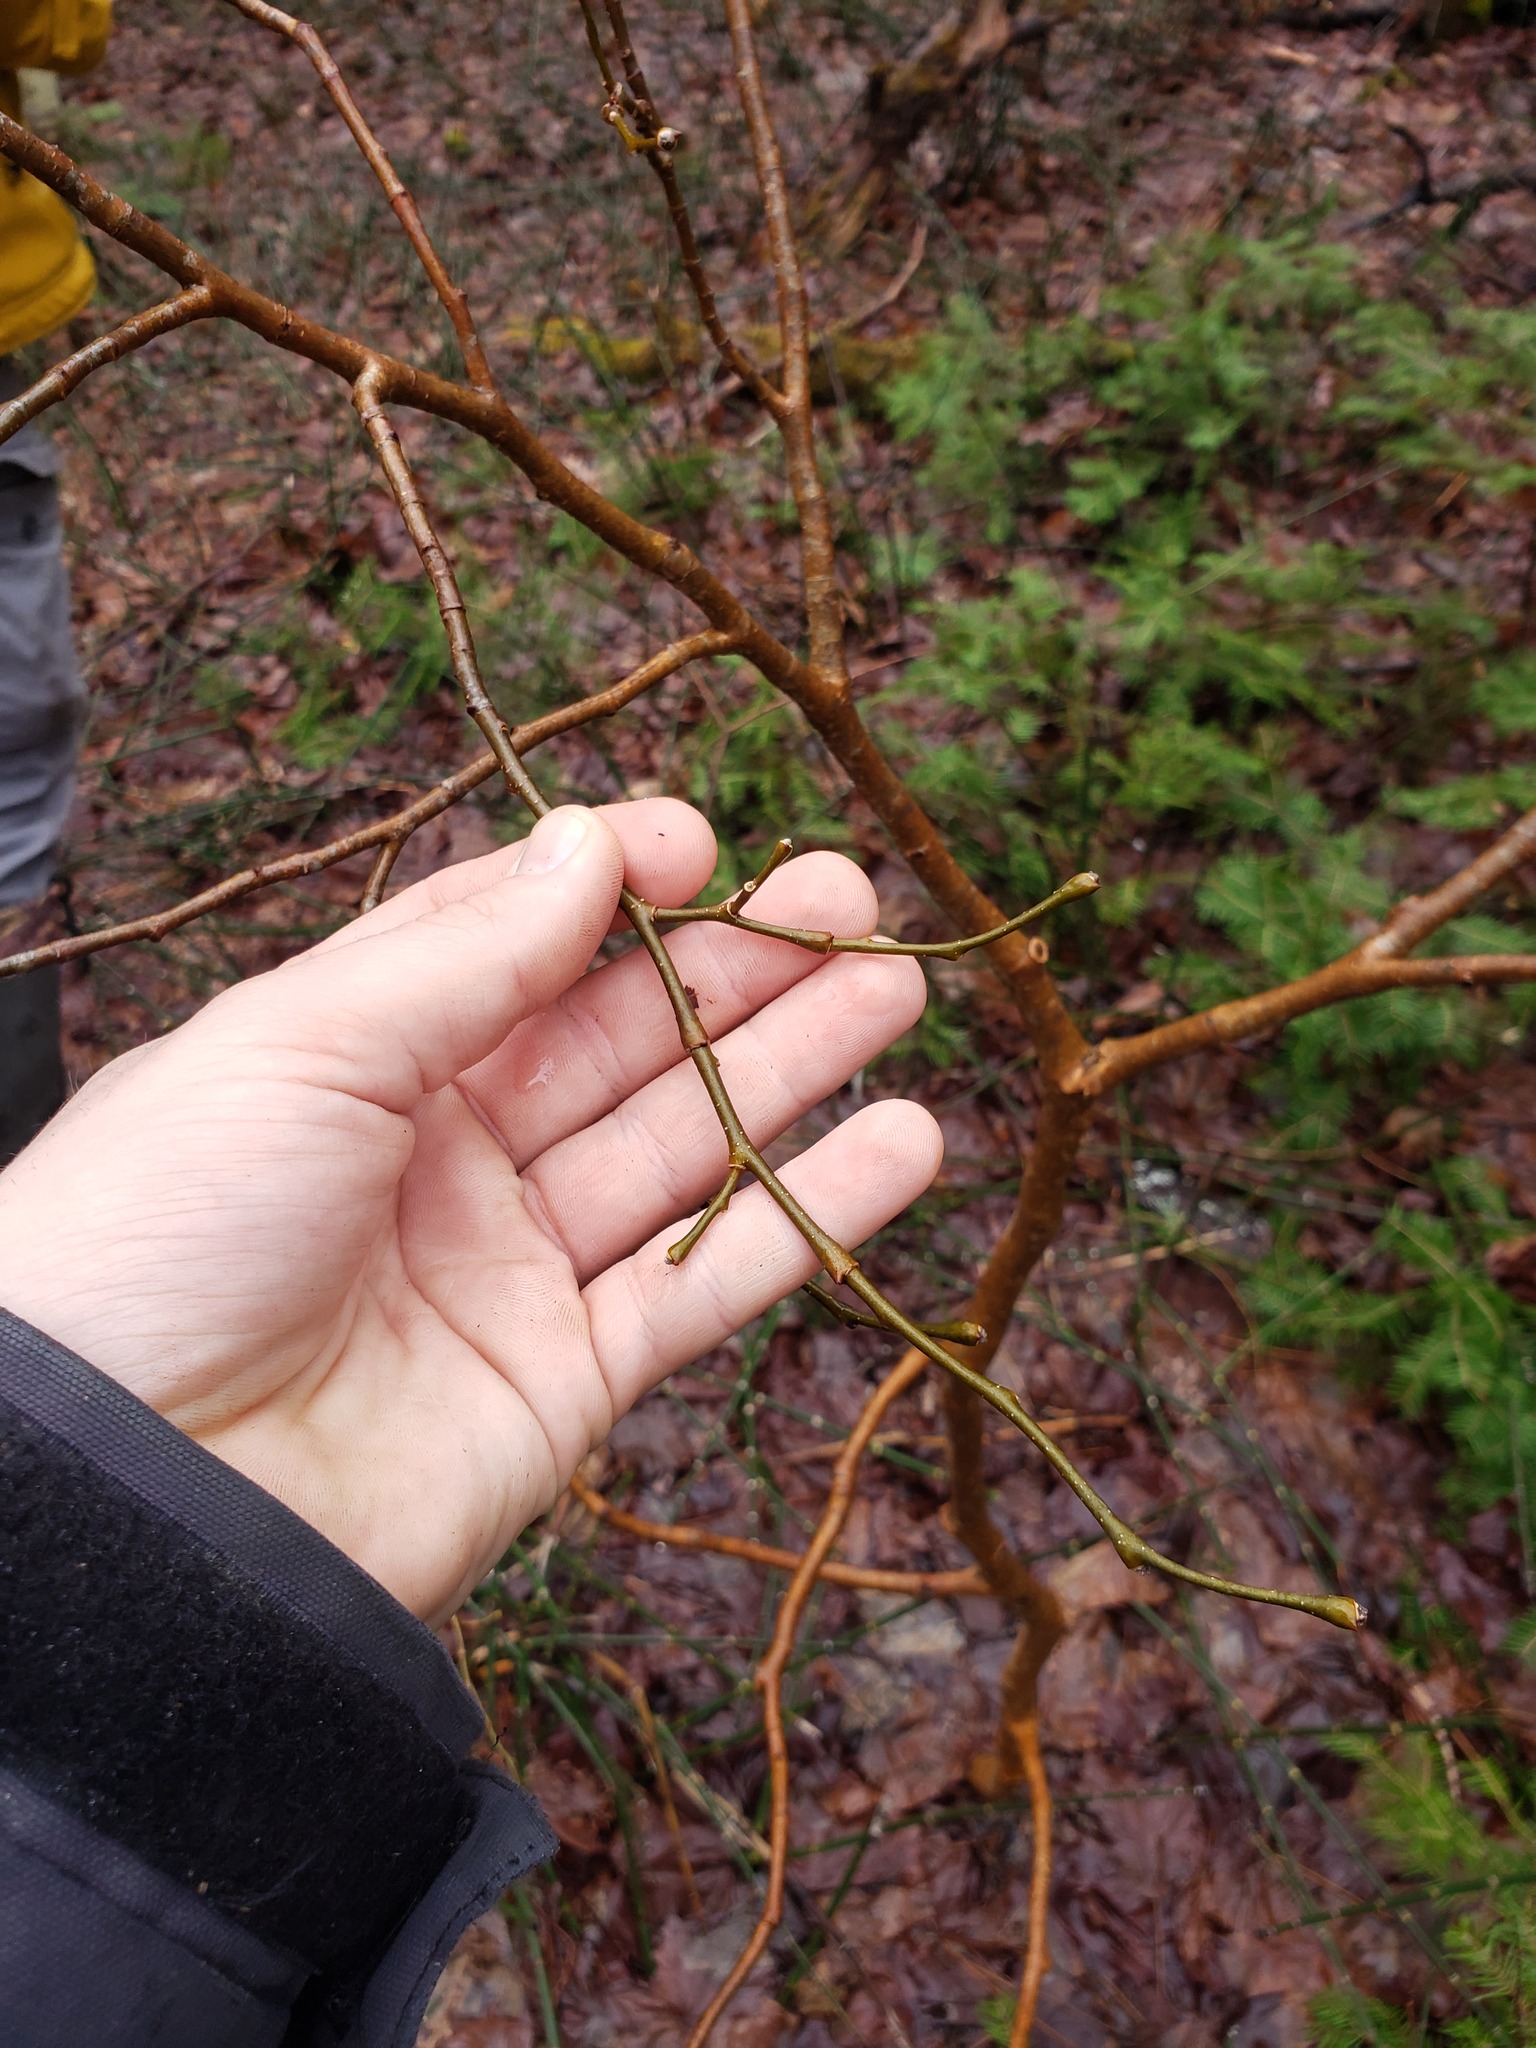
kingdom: Plantae
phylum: Tracheophyta
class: Magnoliopsida
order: Malvales
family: Thymelaeaceae
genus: Dirca
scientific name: Dirca palustris
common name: Leatherwood
